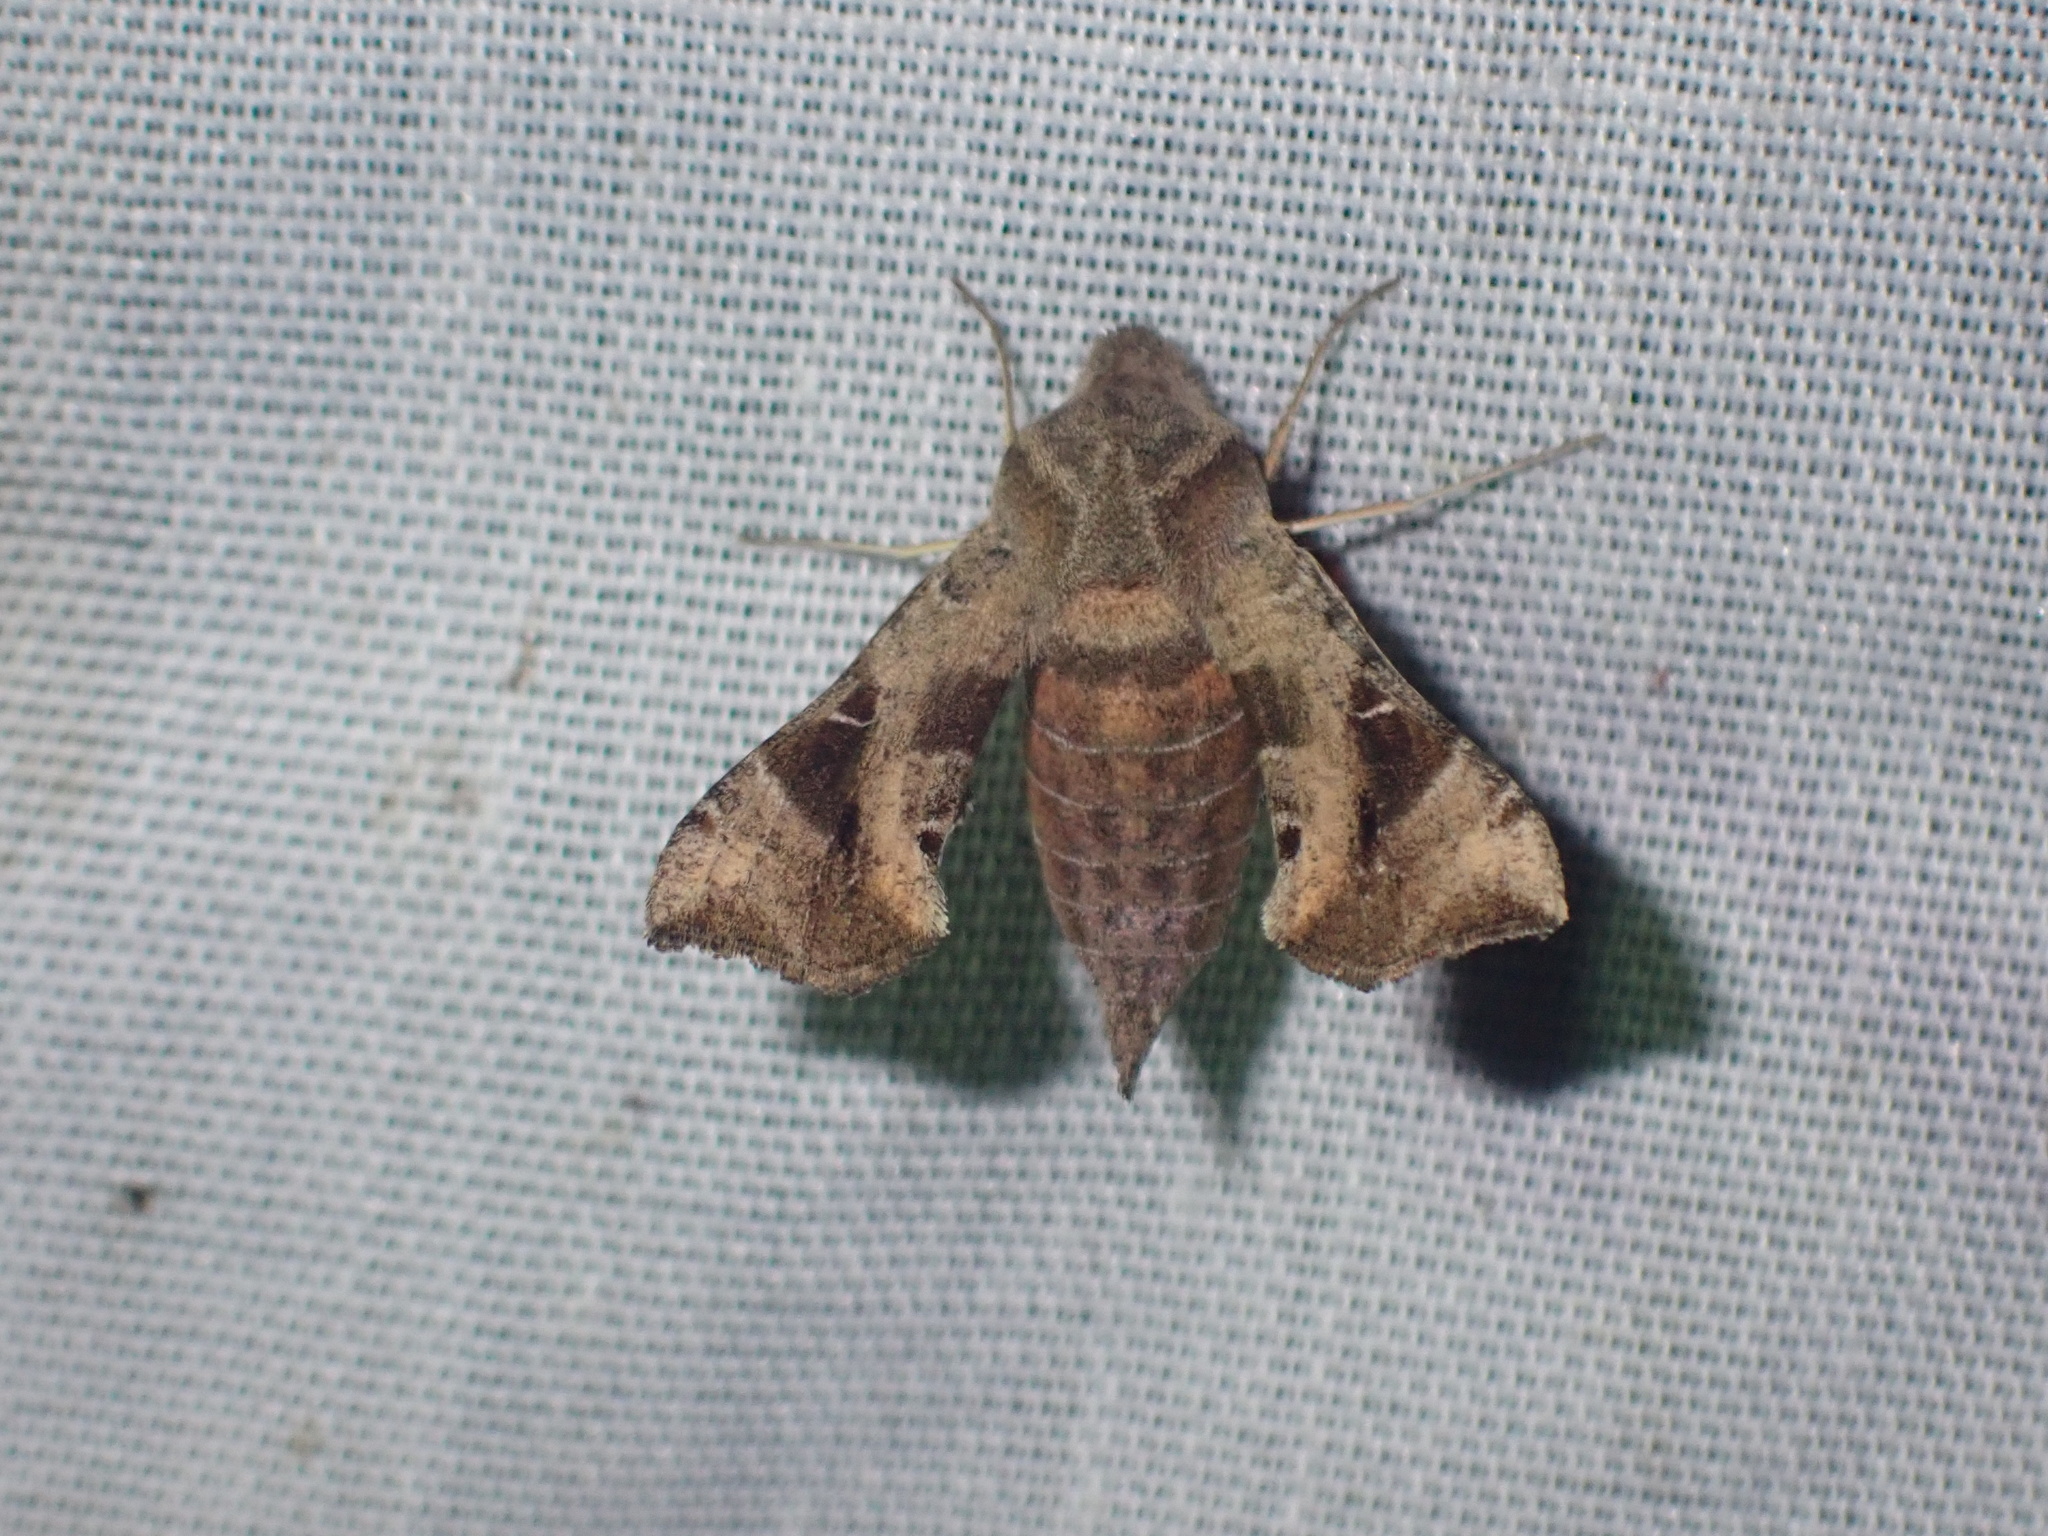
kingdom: Animalia
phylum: Arthropoda
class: Insecta
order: Lepidoptera
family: Sphingidae
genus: Sphingonaepiopsis
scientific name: Sphingonaepiopsis nana
